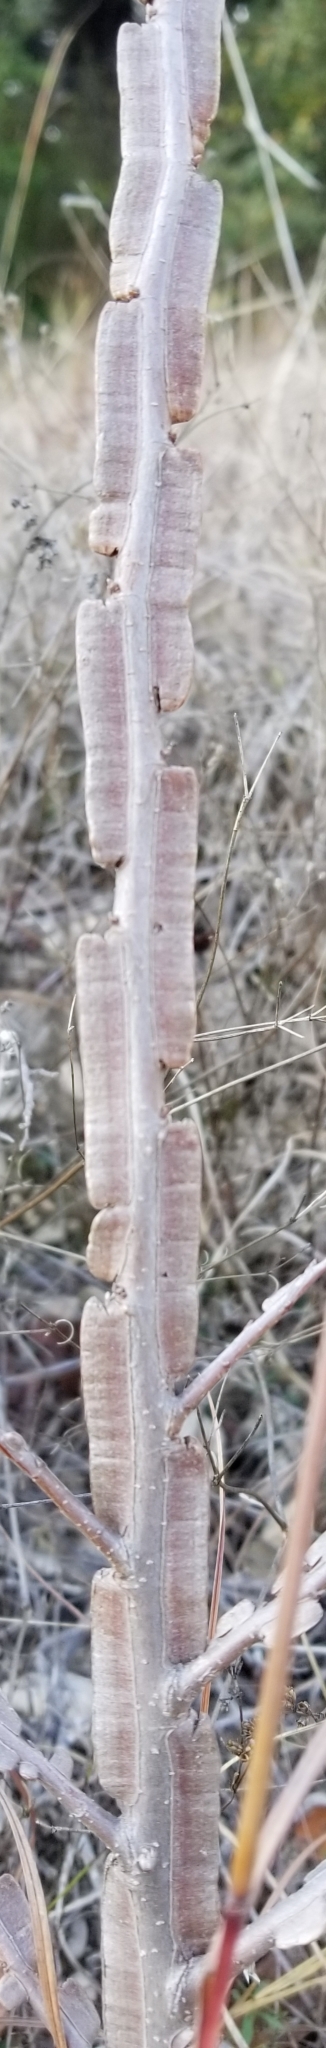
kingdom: Plantae
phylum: Tracheophyta
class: Magnoliopsida
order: Rosales
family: Ulmaceae
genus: Ulmus
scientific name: Ulmus crassifolia
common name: Basket elm
